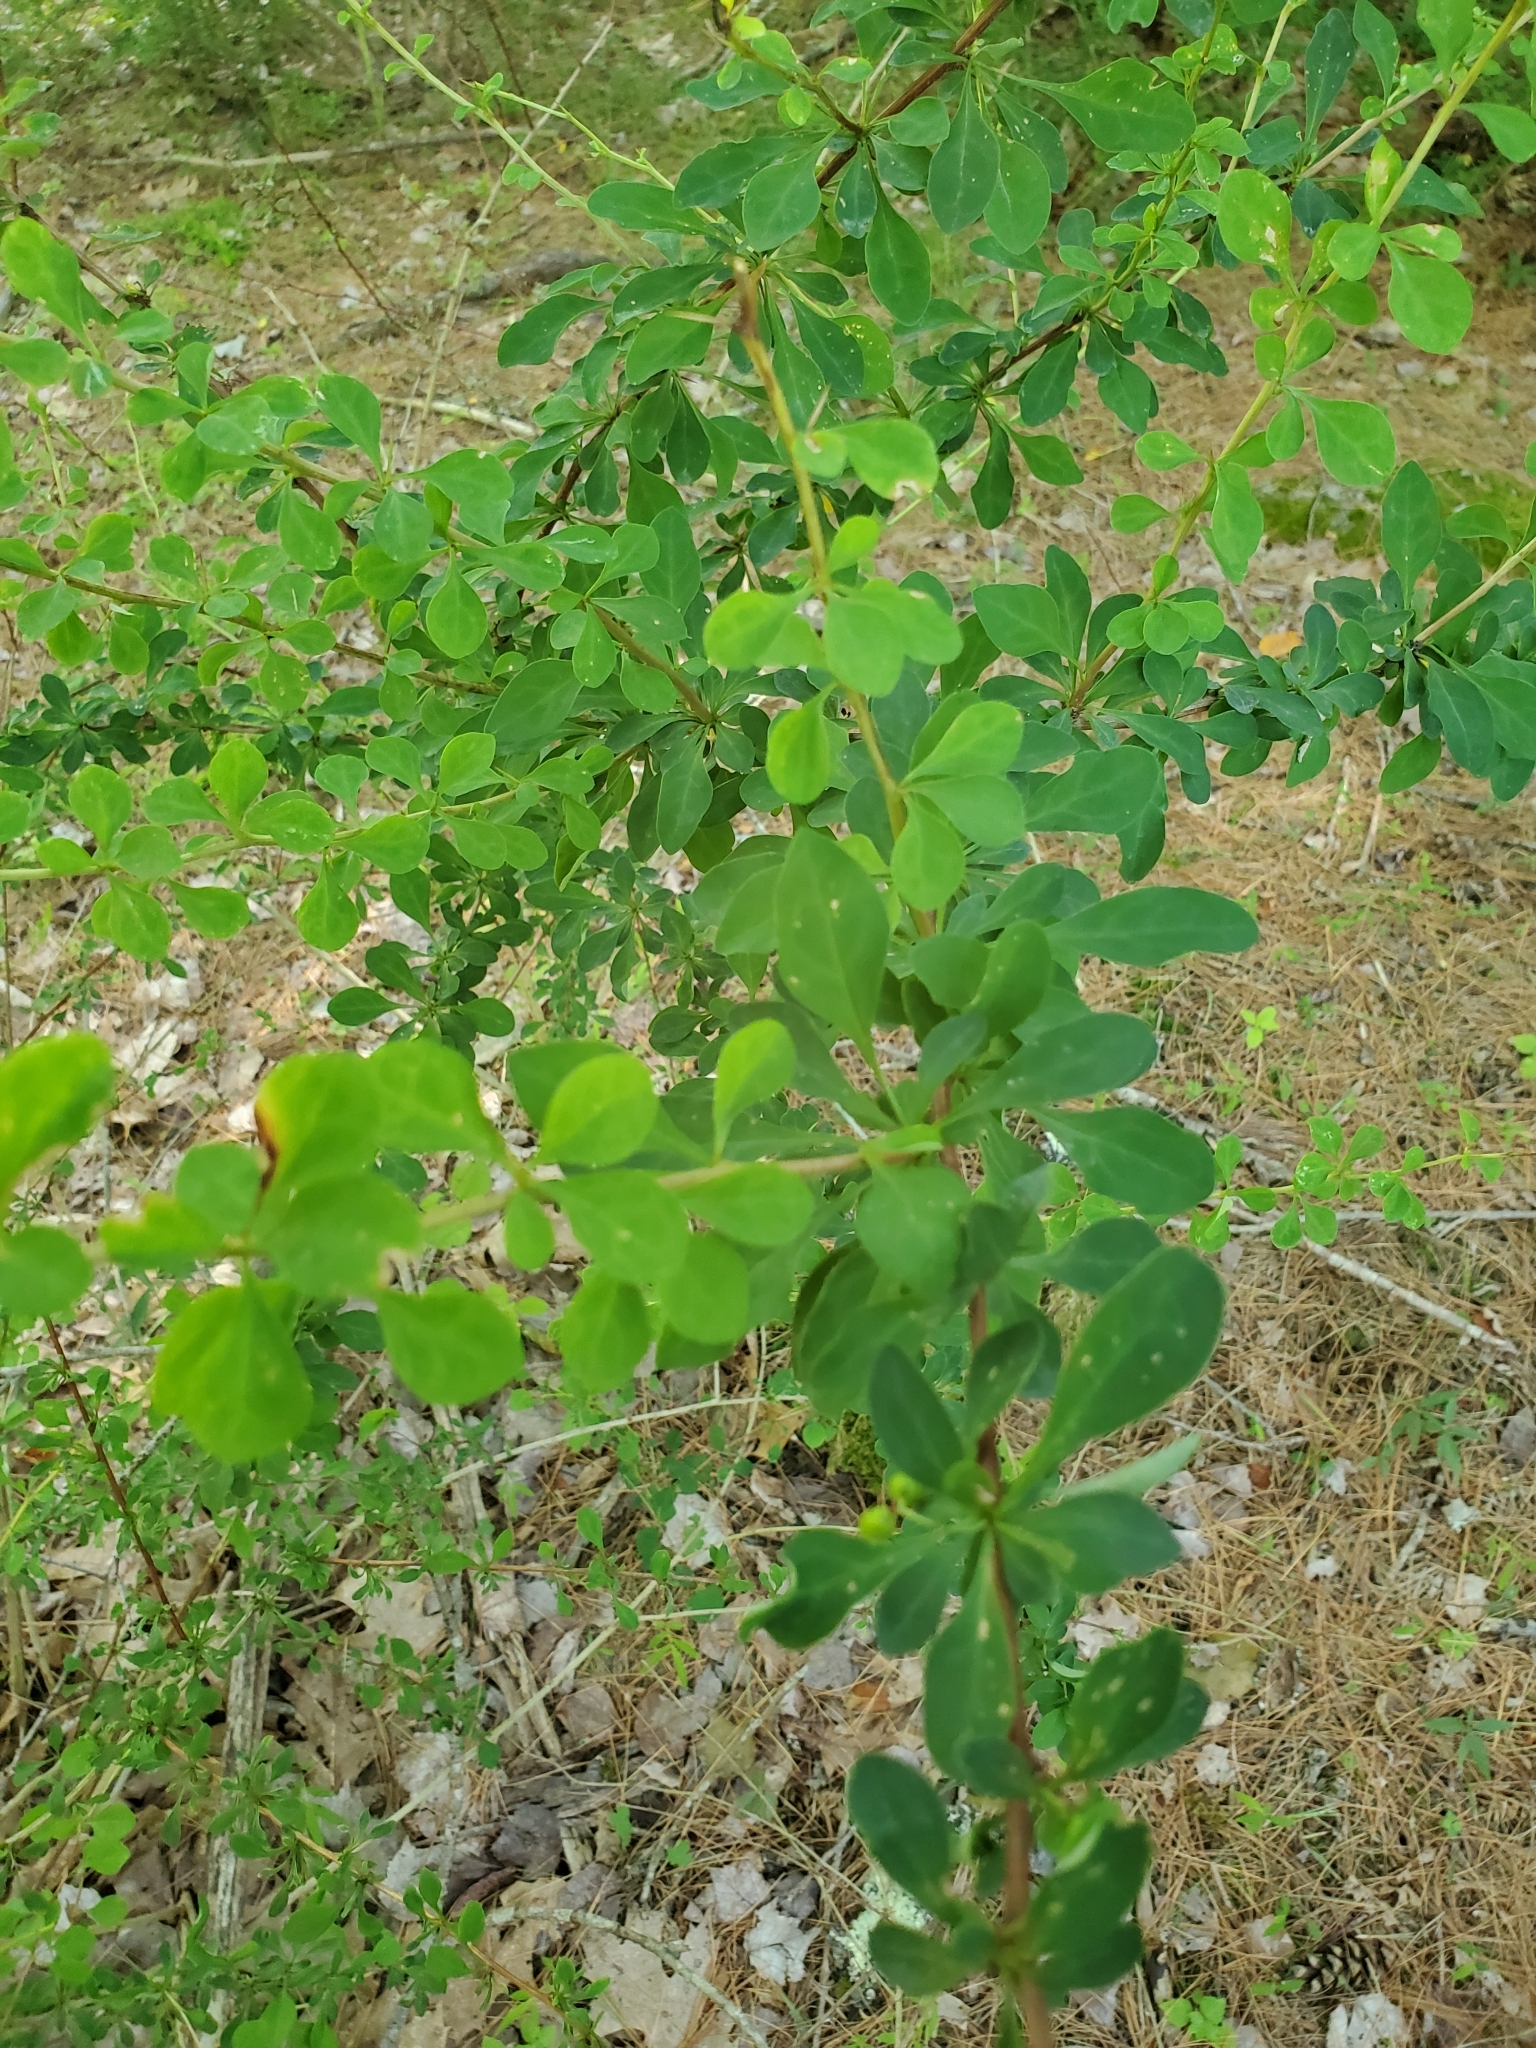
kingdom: Plantae
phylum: Tracheophyta
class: Magnoliopsida
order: Ranunculales
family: Berberidaceae
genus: Berberis
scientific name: Berberis thunbergii
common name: Japanese barberry
